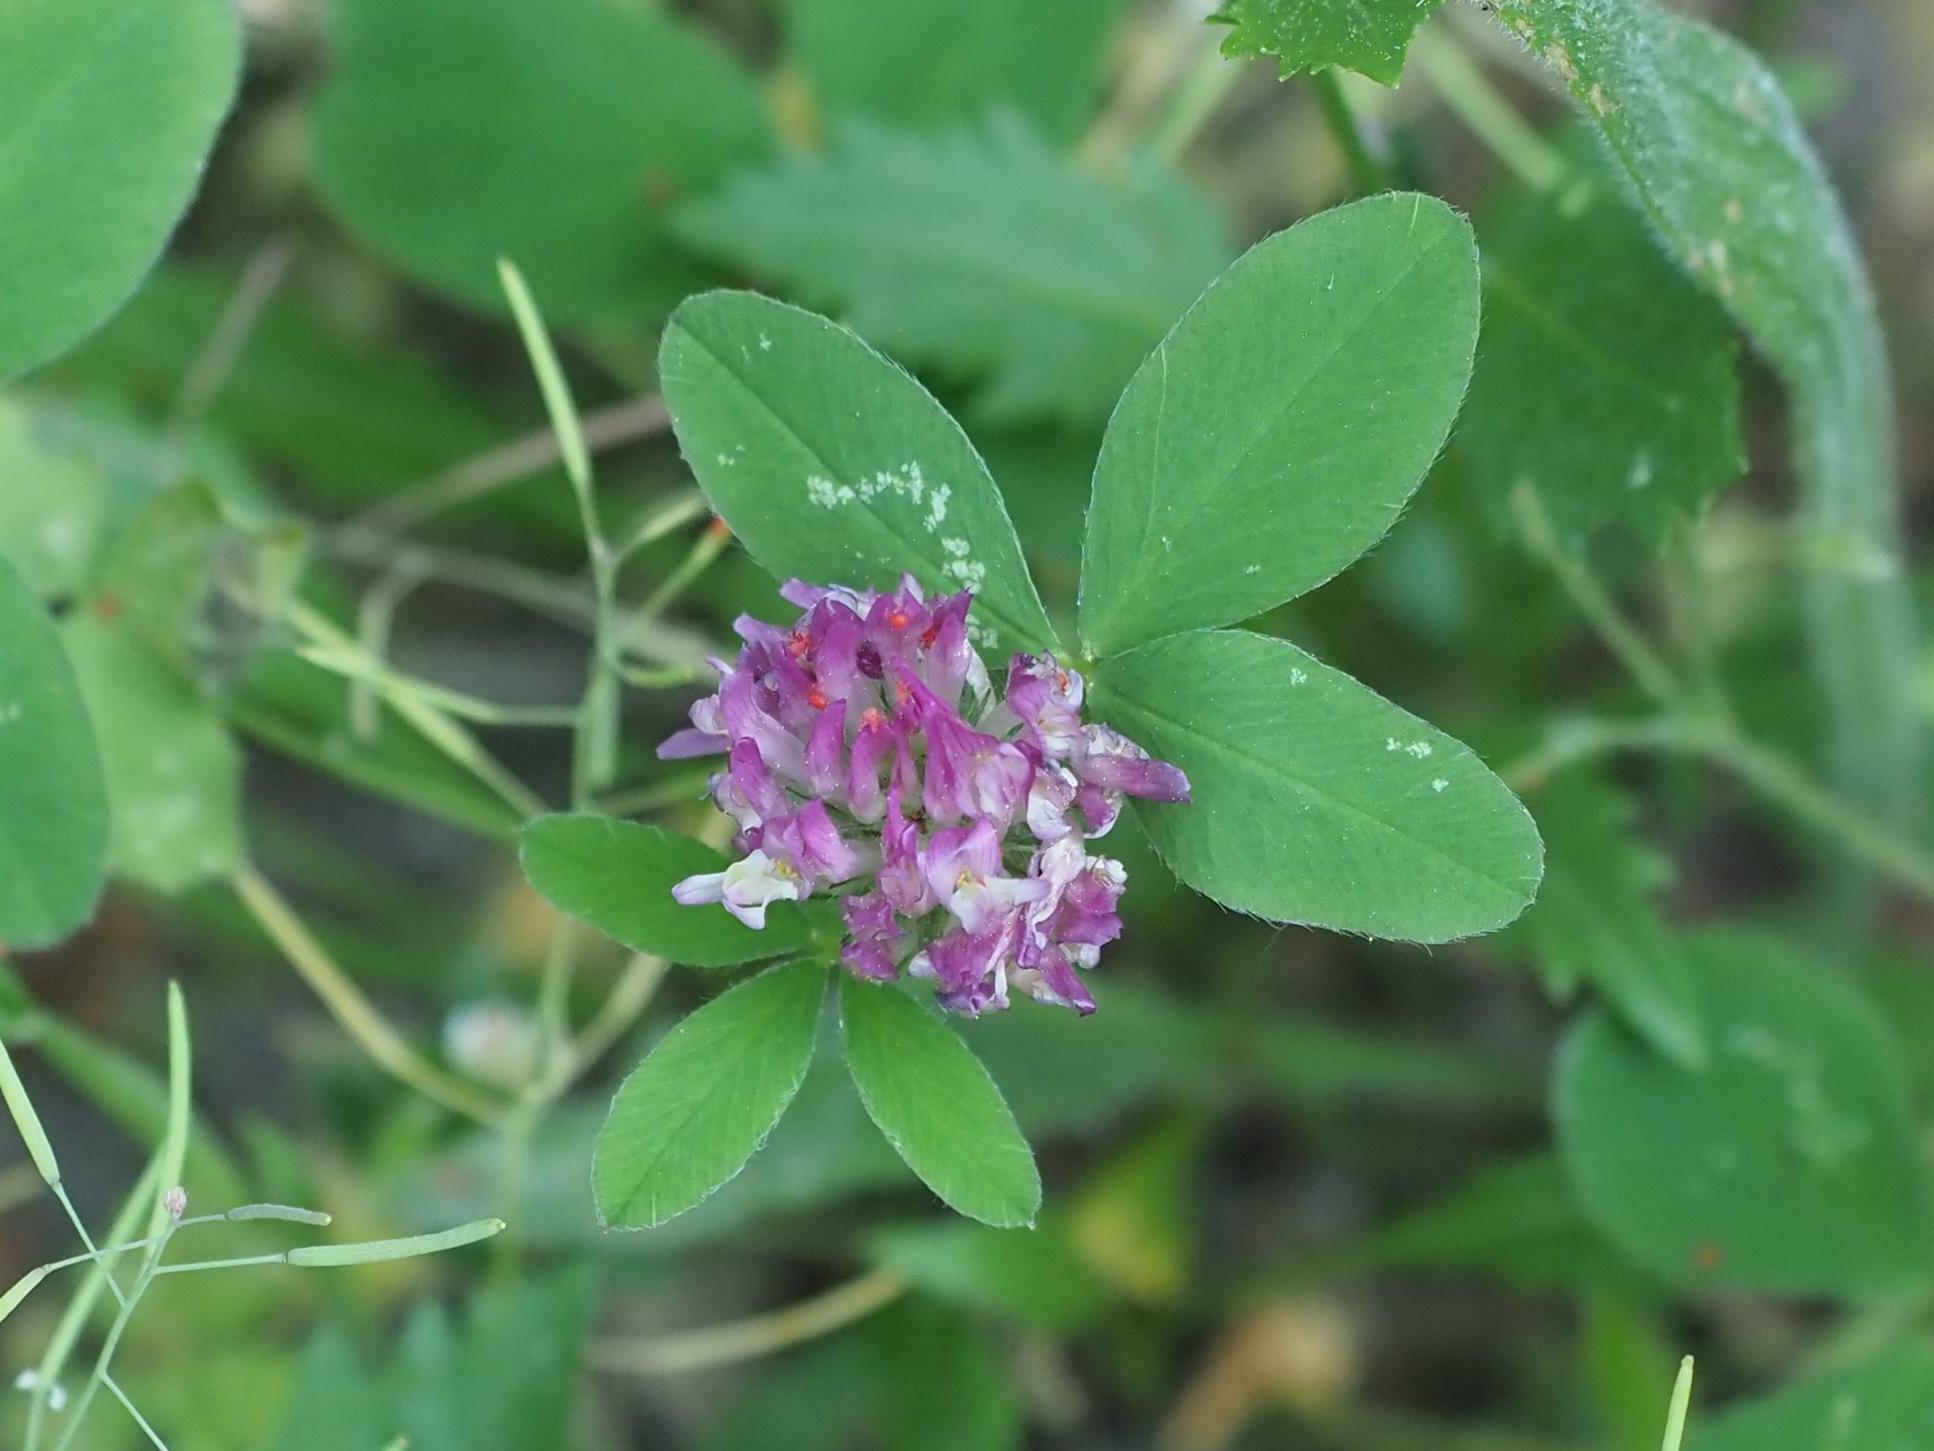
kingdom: Plantae
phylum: Tracheophyta
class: Magnoliopsida
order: Fabales
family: Fabaceae
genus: Trifolium
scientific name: Trifolium pratense
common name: Red clover
